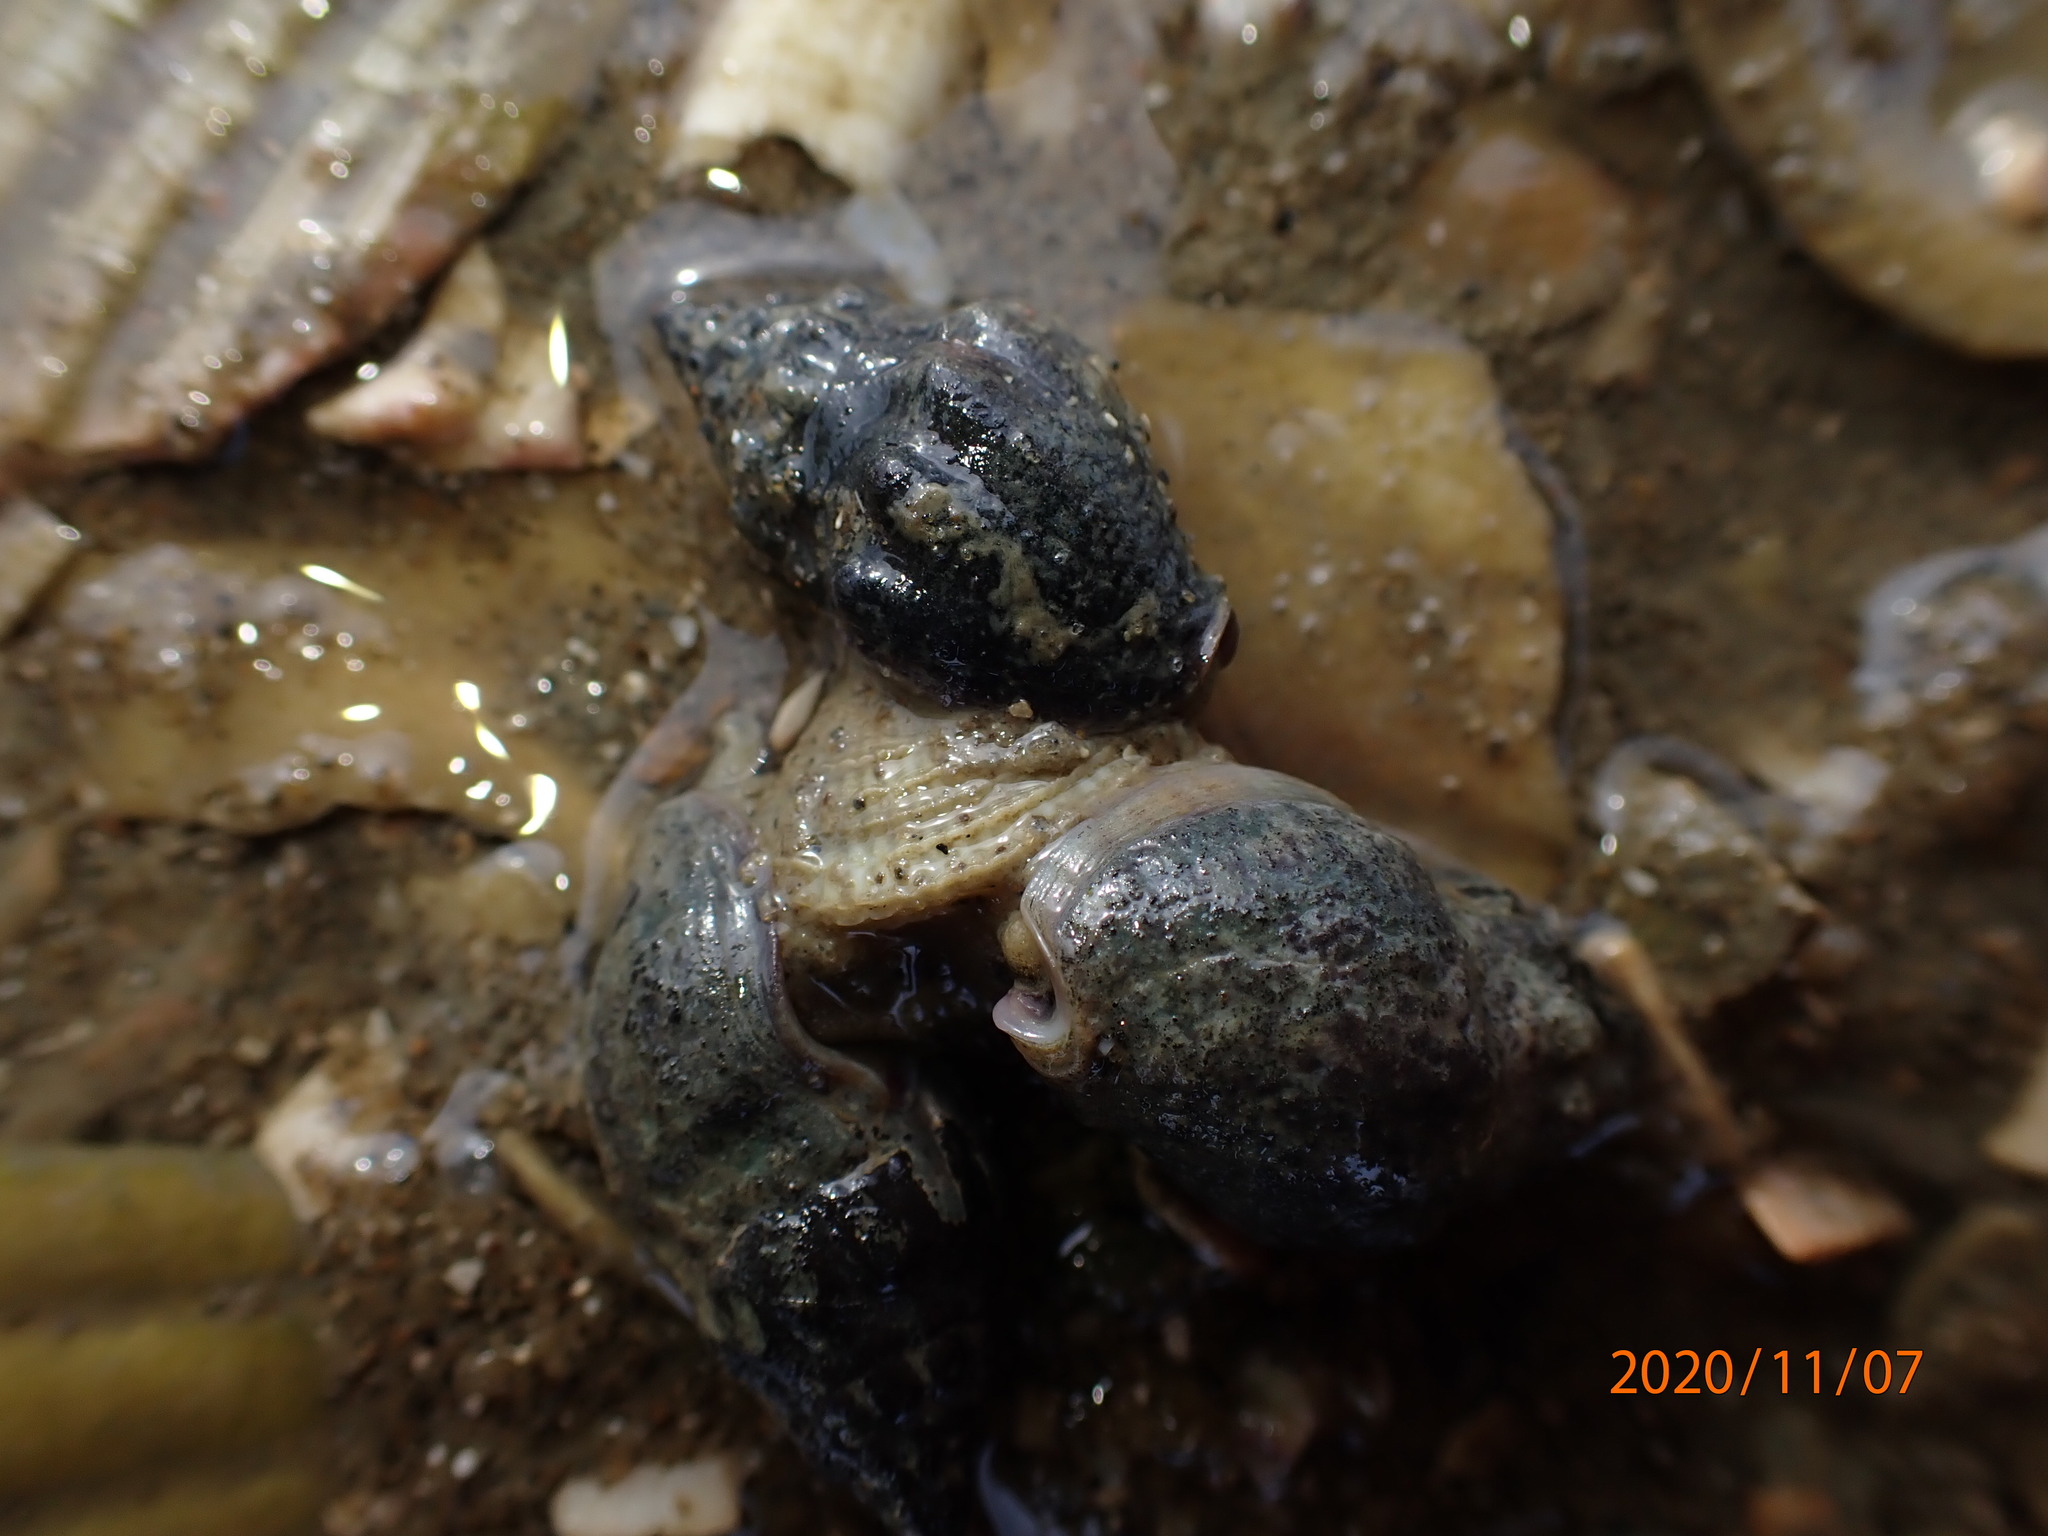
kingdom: Animalia
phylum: Mollusca
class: Gastropoda
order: Neogastropoda
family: Cominellidae
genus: Cominella
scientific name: Cominella glandiformis
